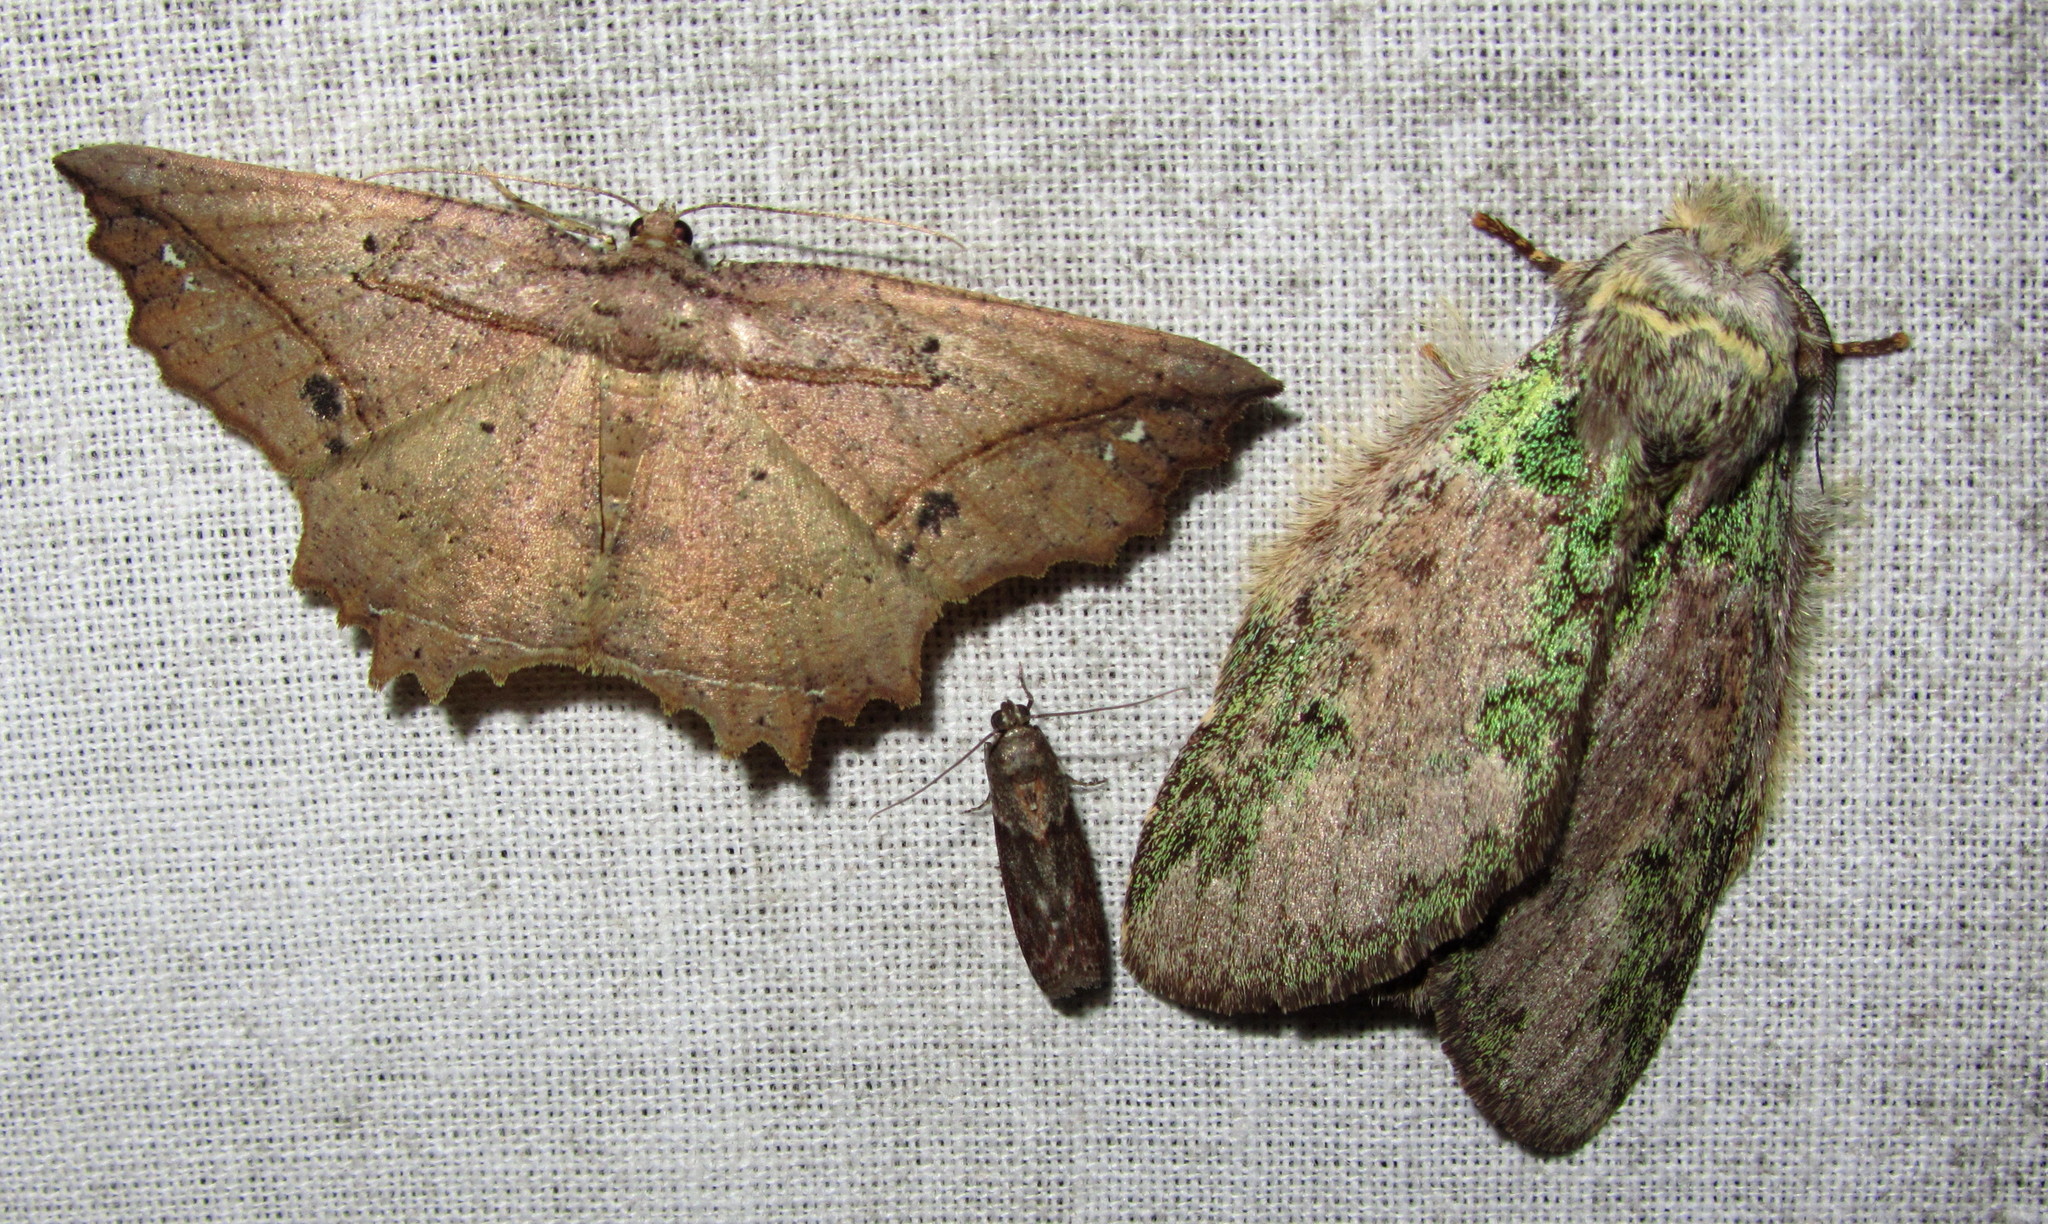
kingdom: Animalia
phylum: Arthropoda
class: Insecta
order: Lepidoptera
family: Geometridae
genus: Menophra
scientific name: Menophra torridaria
